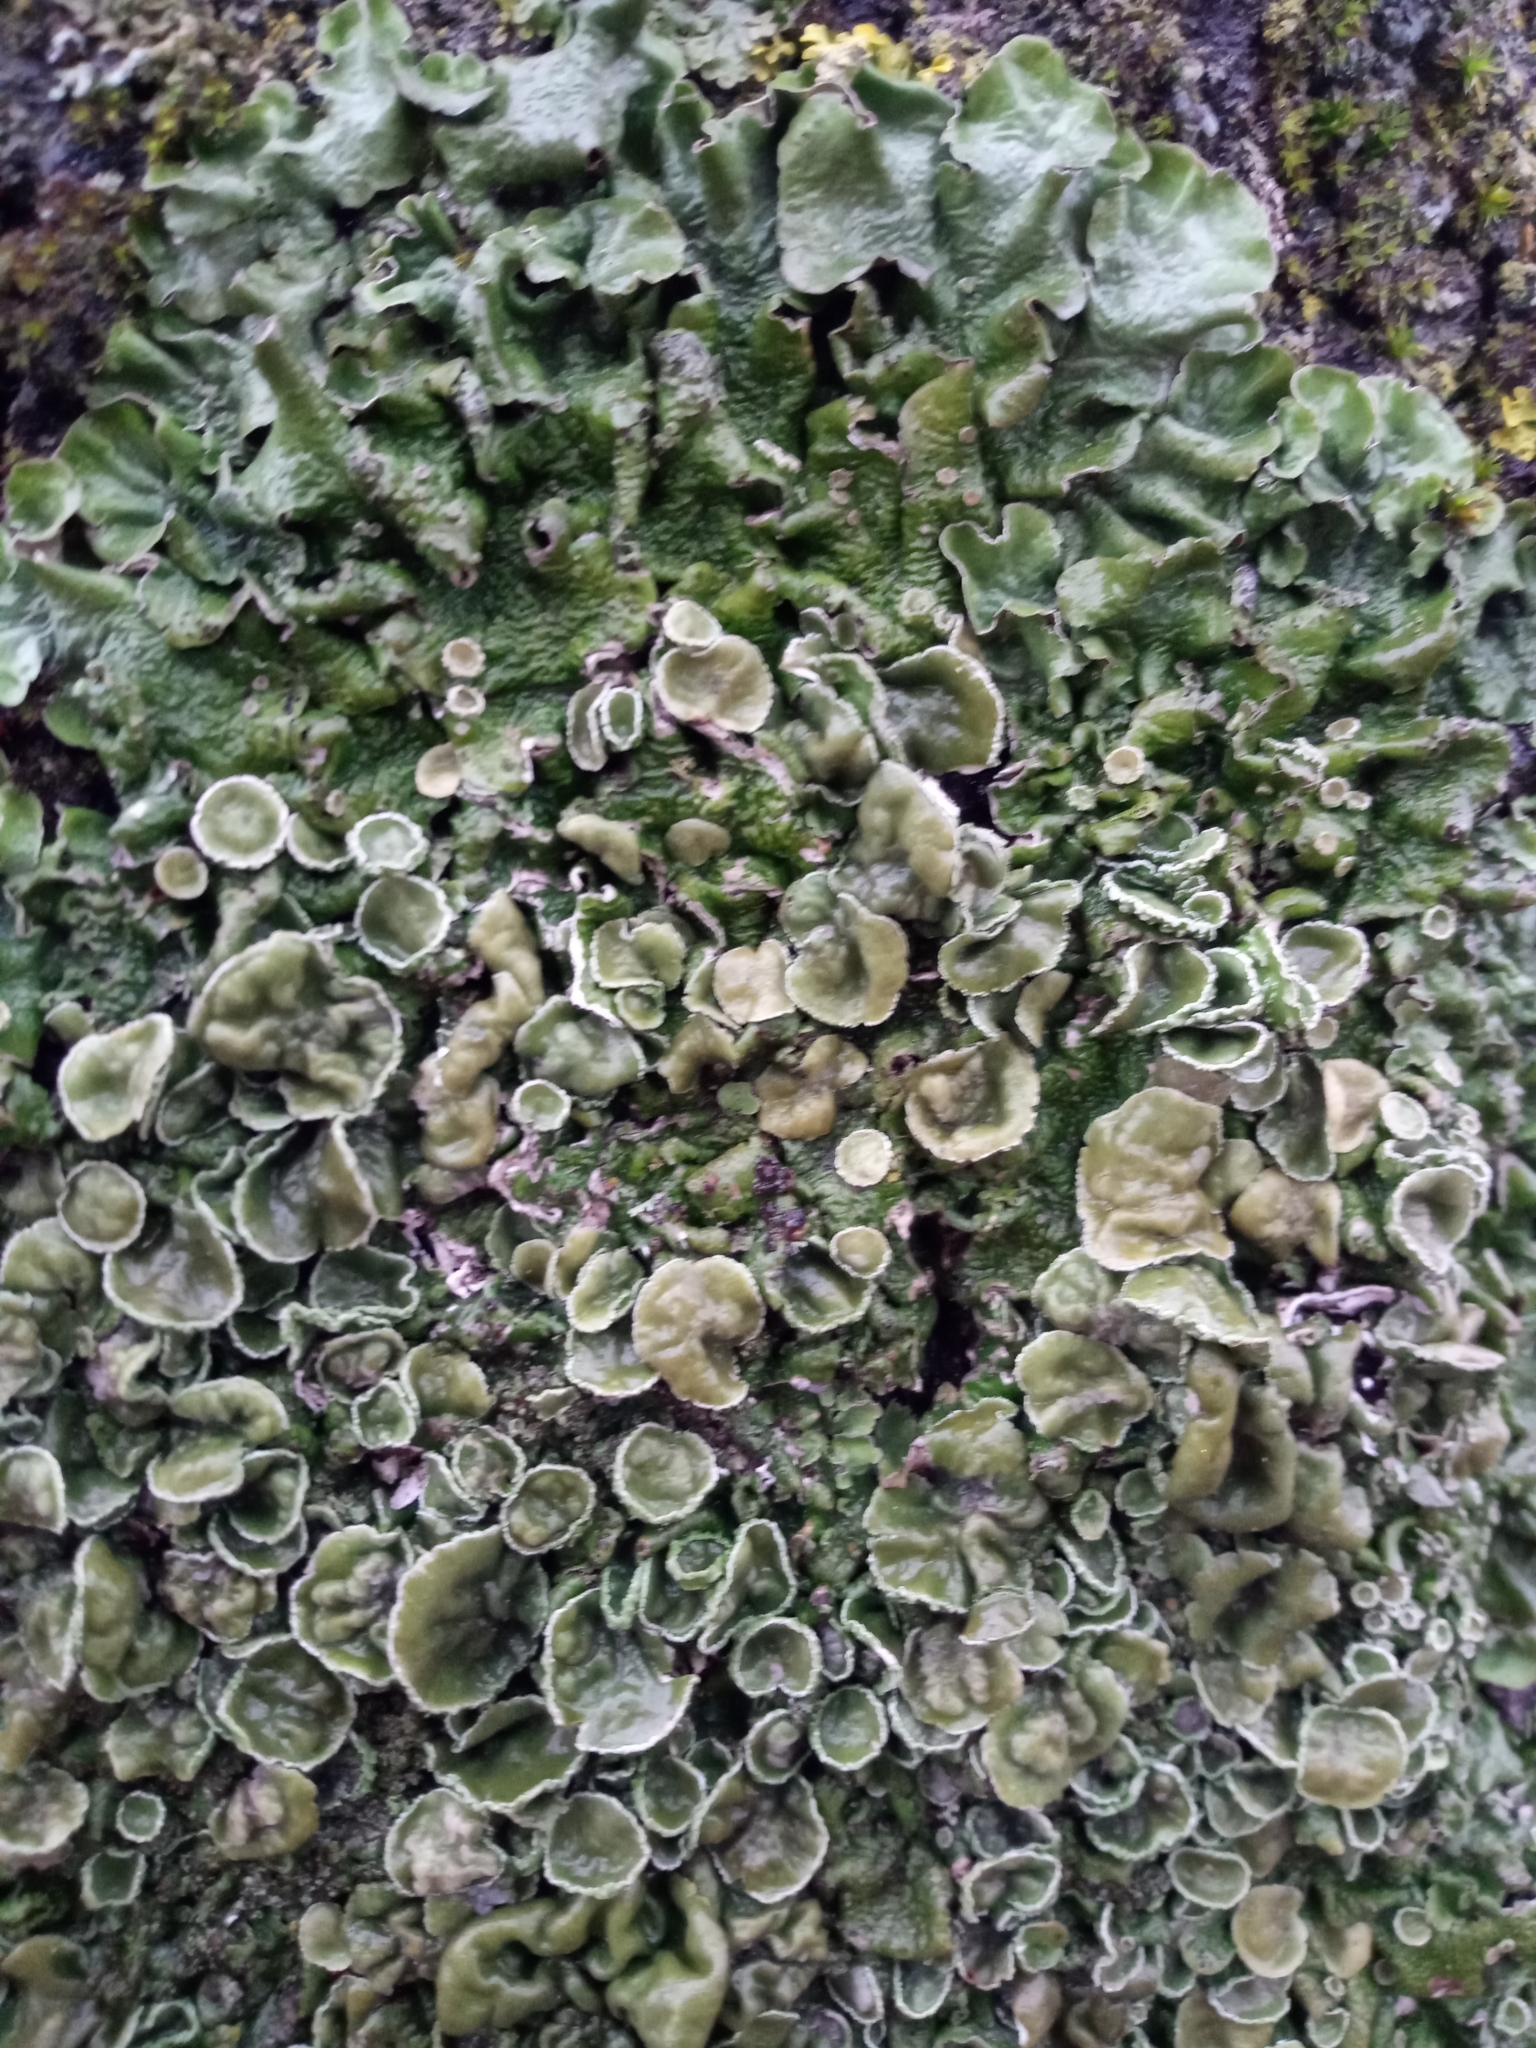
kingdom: Fungi
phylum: Ascomycota
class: Lecanoromycetes
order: Lecanorales
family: Parmeliaceae
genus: Pleurosticta
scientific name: Pleurosticta acetabulum
